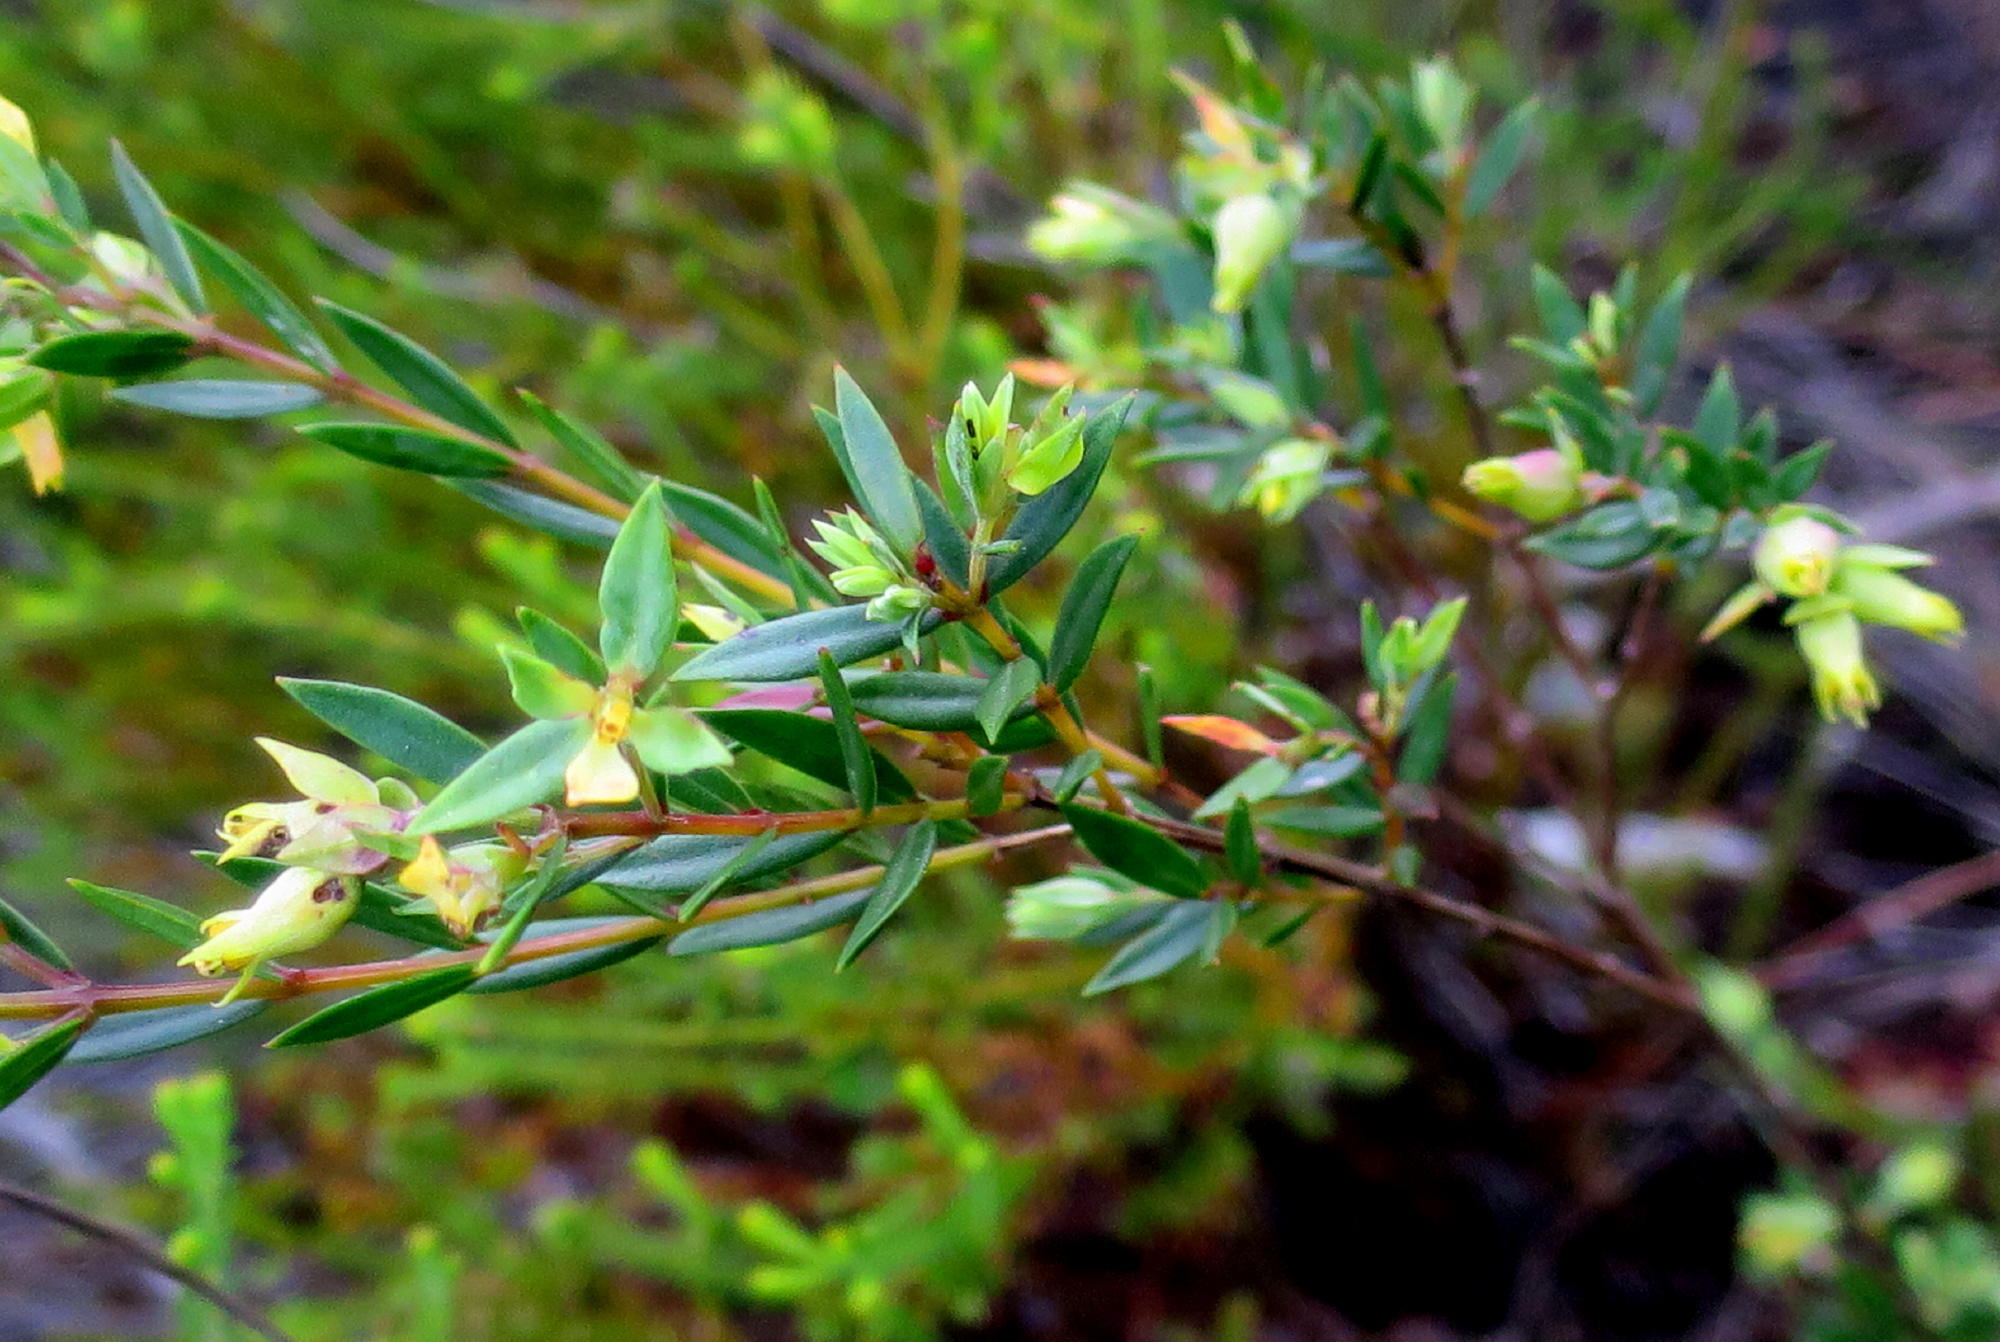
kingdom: Plantae
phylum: Tracheophyta
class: Magnoliopsida
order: Myrtales
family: Penaeaceae
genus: Penaea
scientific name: Penaea acutifolia
